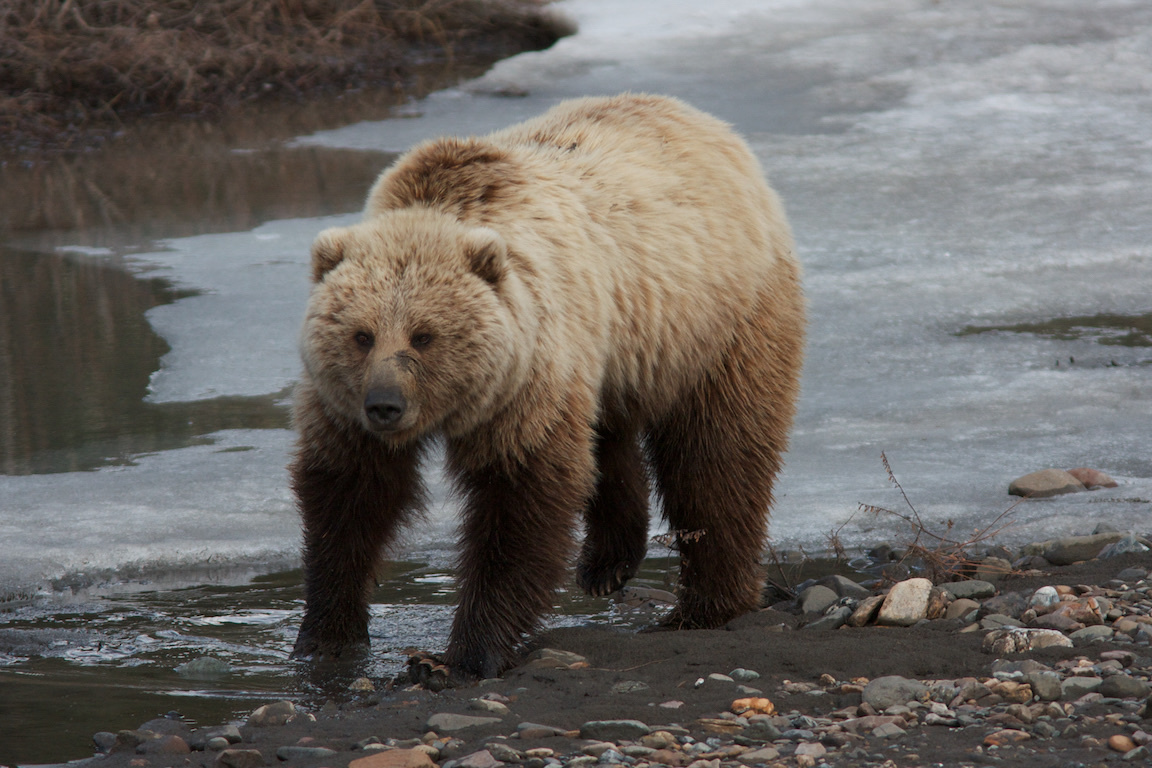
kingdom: Animalia
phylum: Chordata
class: Mammalia
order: Carnivora
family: Ursidae
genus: Ursus
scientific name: Ursus arctos
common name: Brown bear
